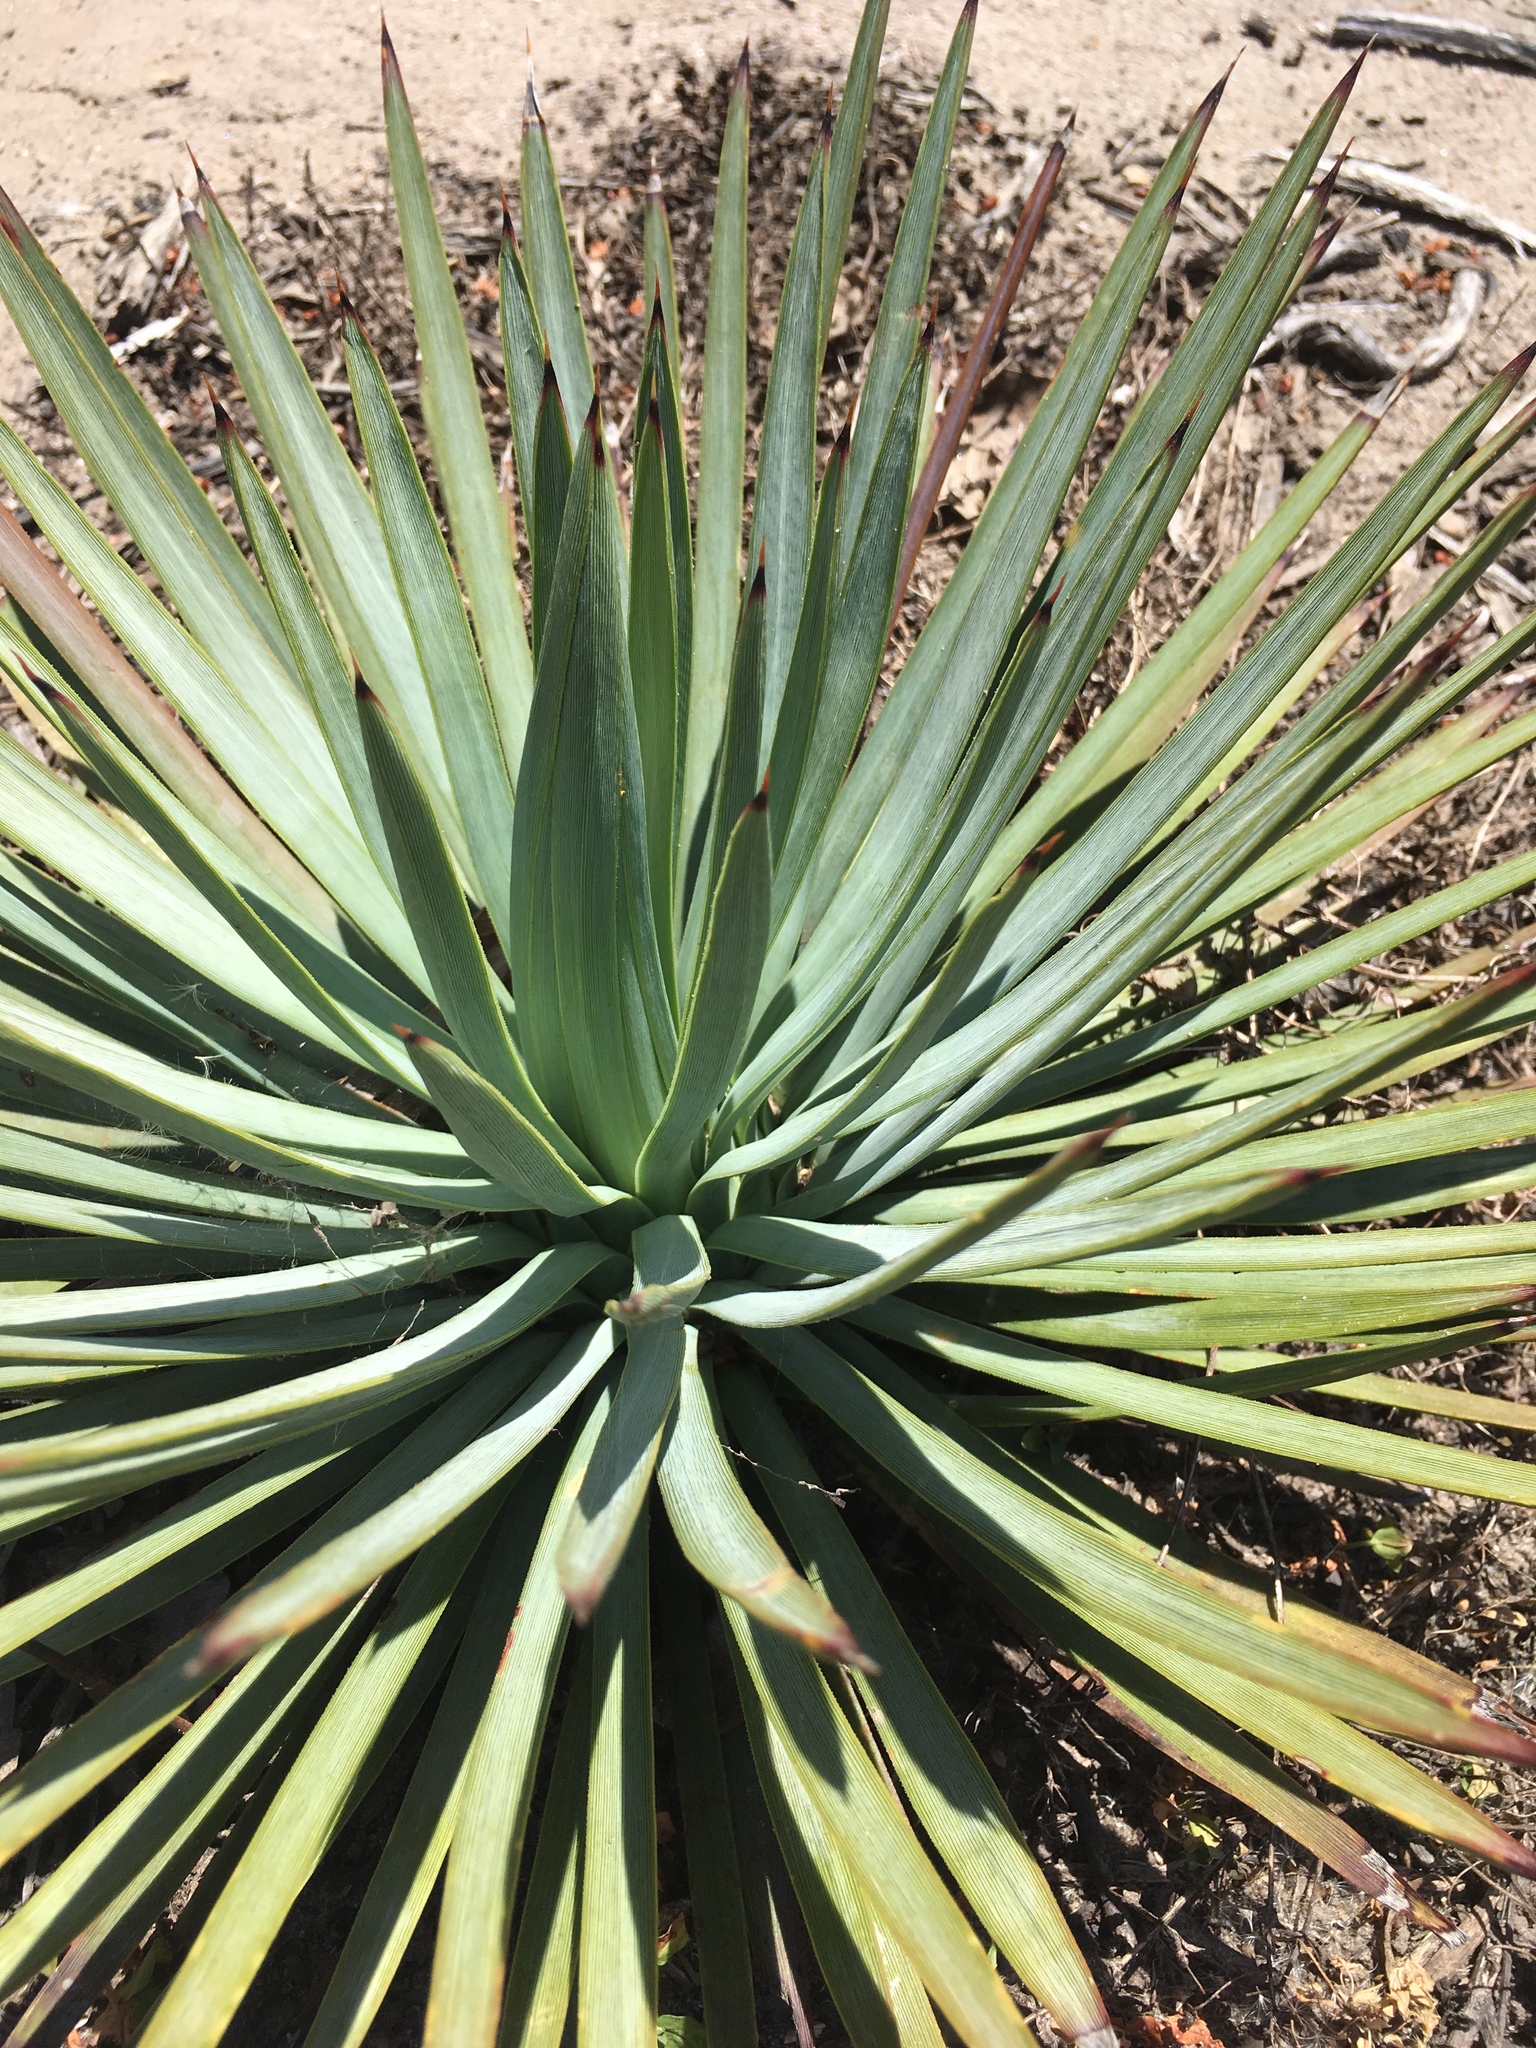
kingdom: Plantae
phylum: Tracheophyta
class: Liliopsida
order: Asparagales
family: Asparagaceae
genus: Hesperoyucca
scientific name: Hesperoyucca whipplei
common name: Our lord's-candle
